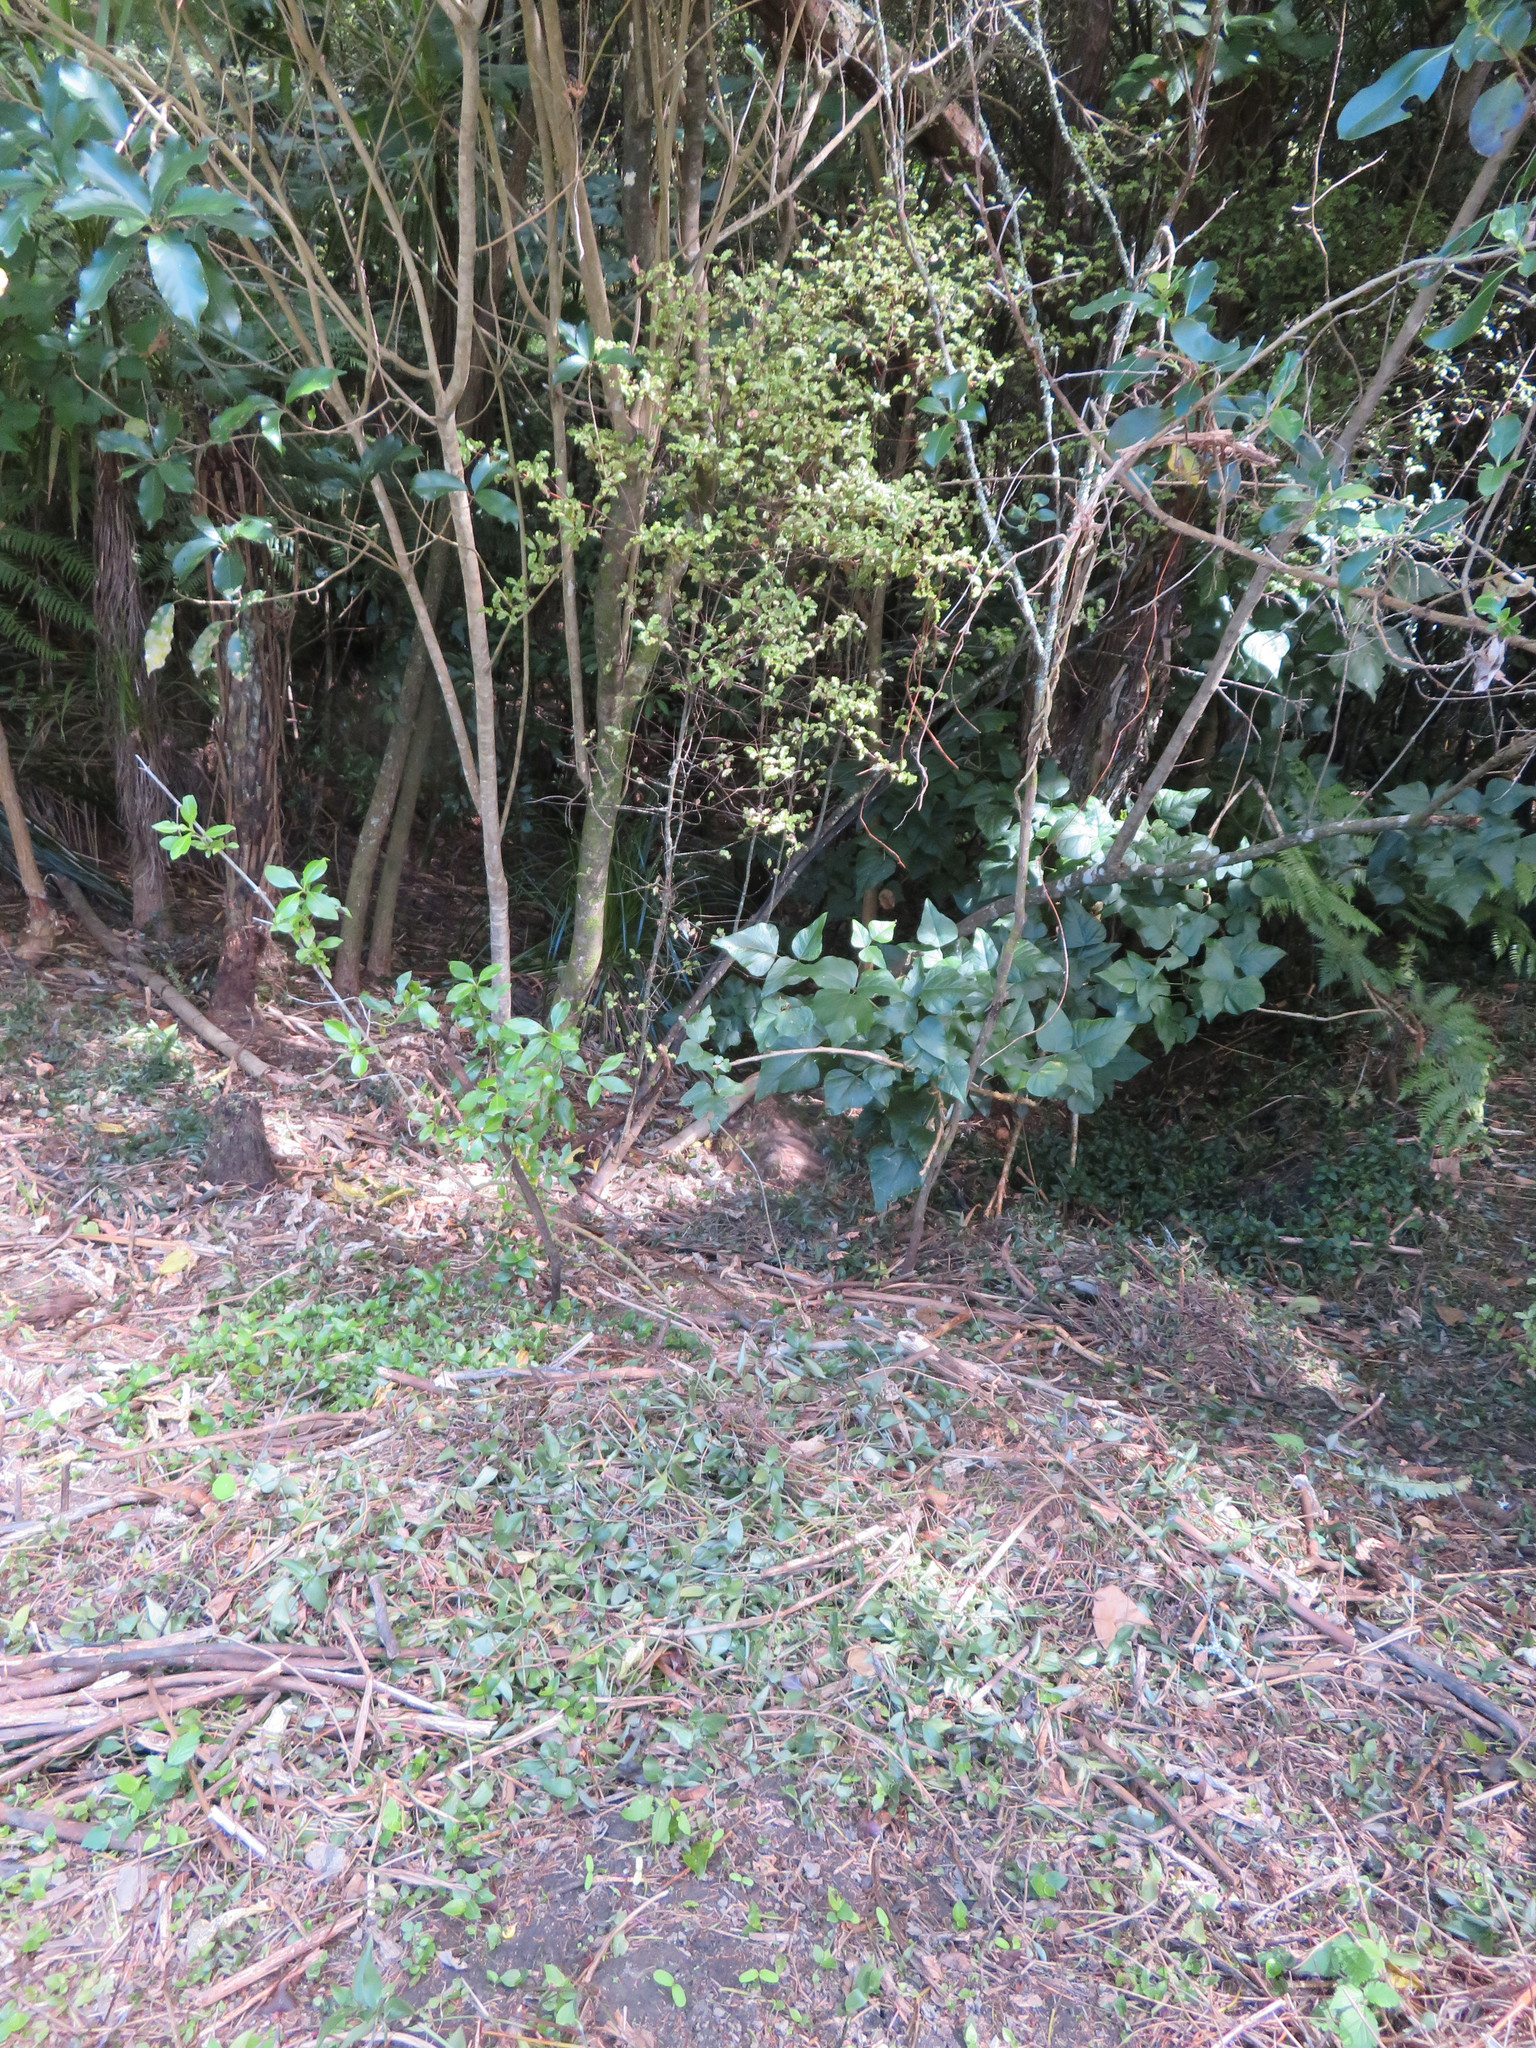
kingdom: Plantae
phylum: Tracheophyta
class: Liliopsida
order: Commelinales
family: Commelinaceae
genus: Tradescantia
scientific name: Tradescantia fluminensis
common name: Wandering-jew
